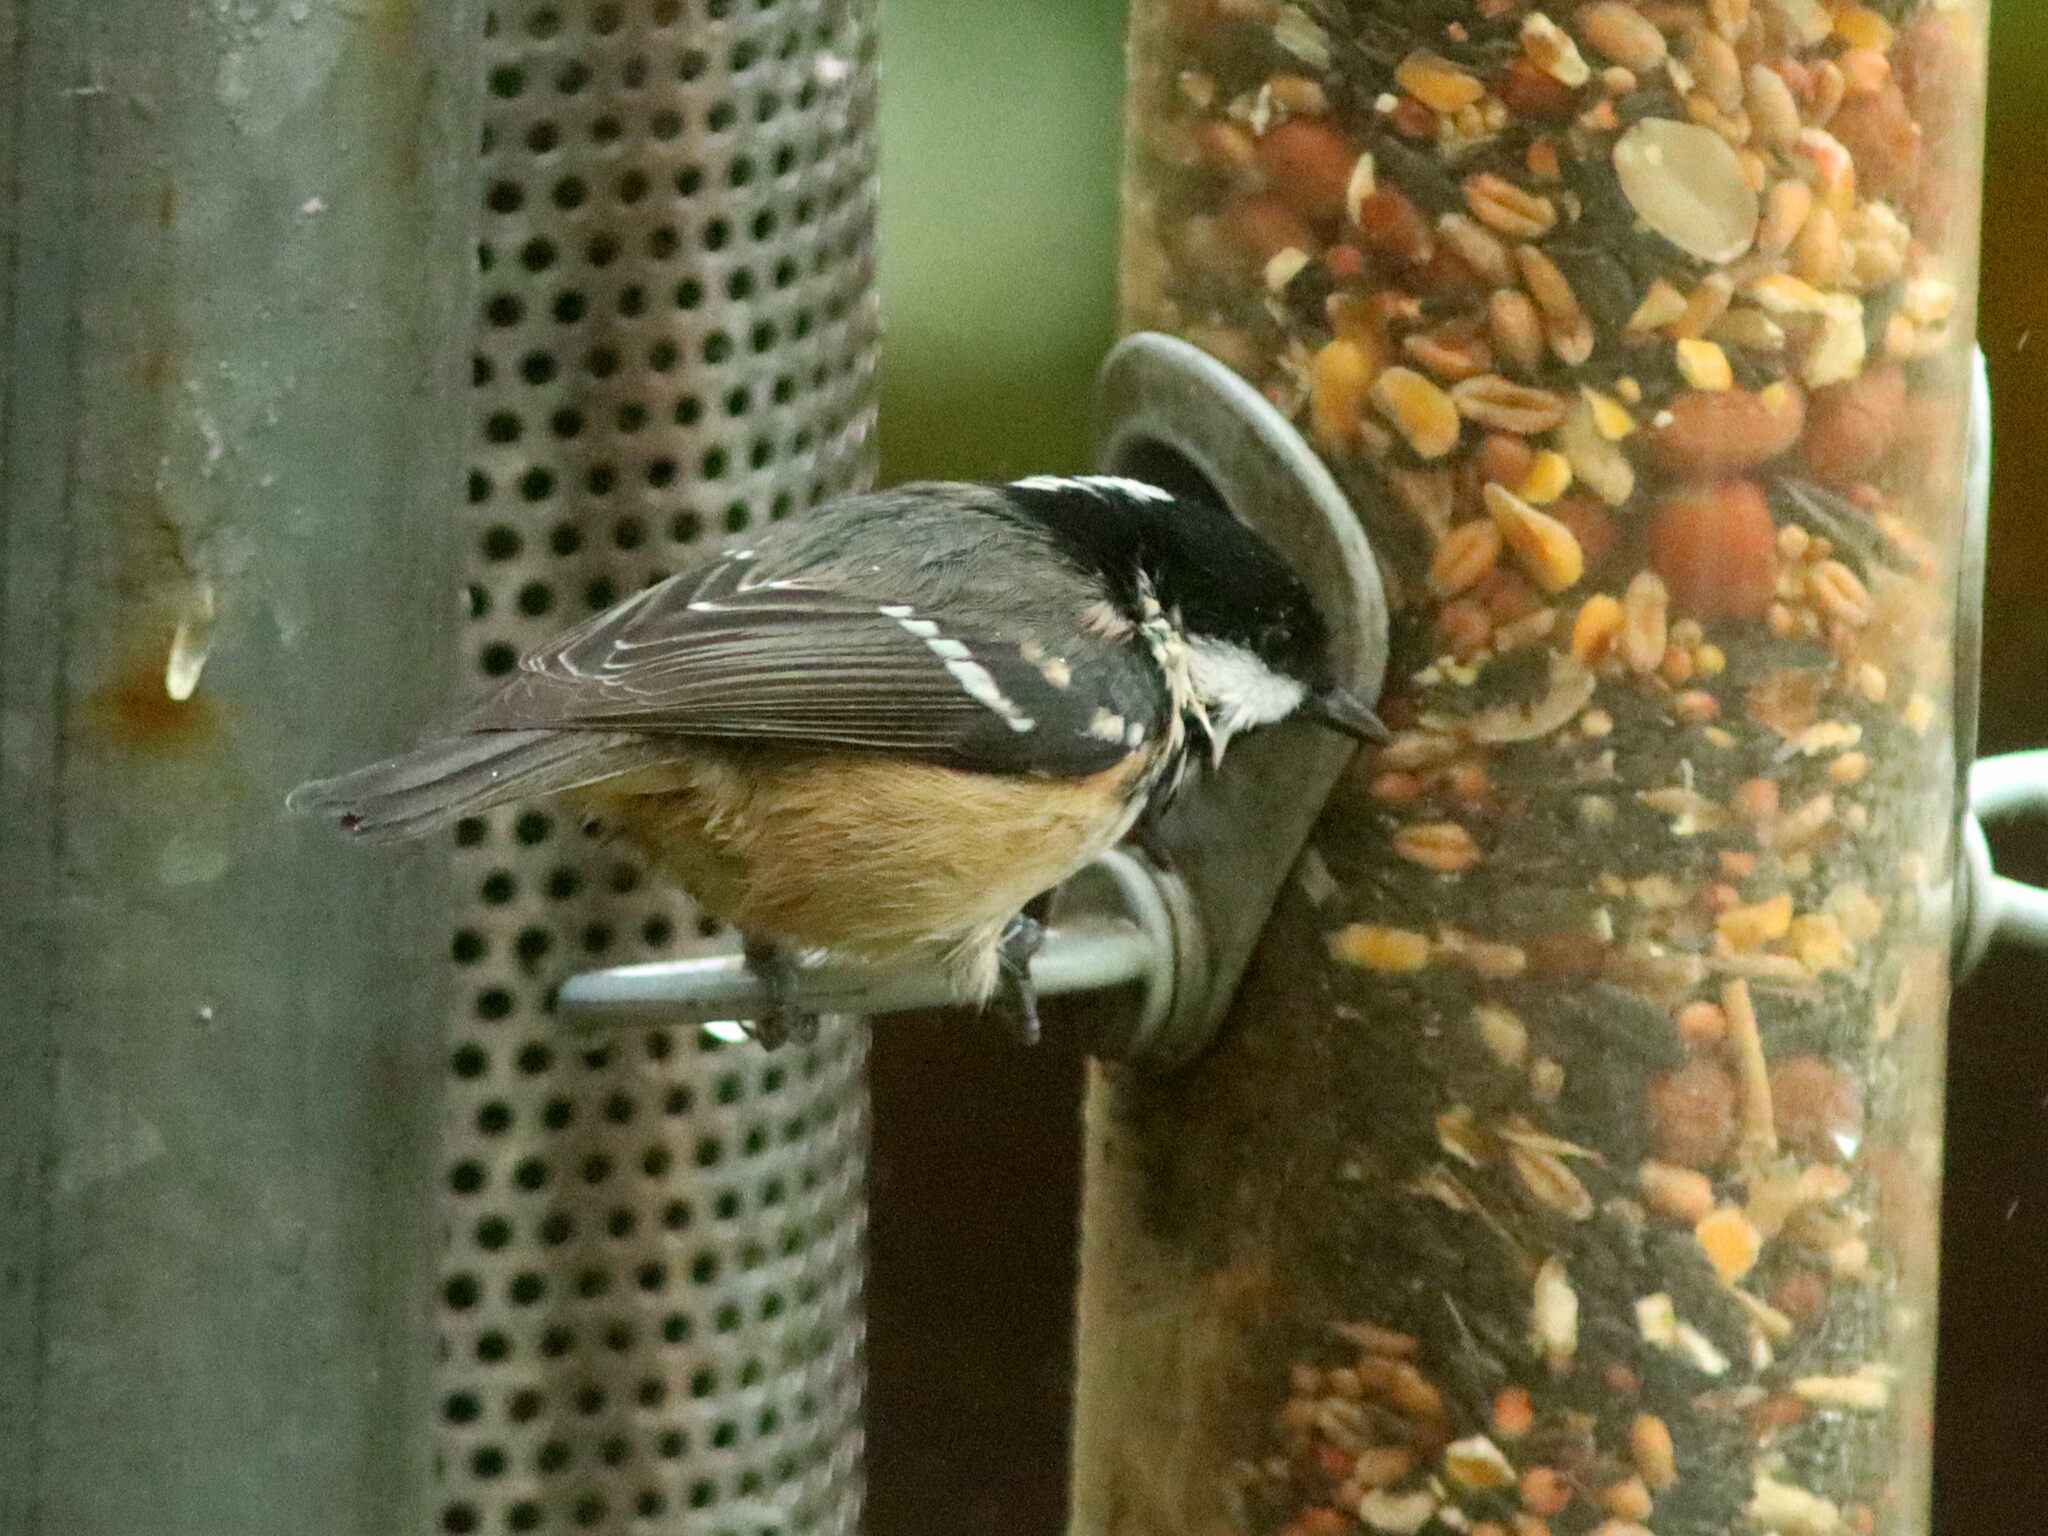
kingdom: Animalia
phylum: Chordata
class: Aves
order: Passeriformes
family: Paridae
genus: Periparus
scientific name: Periparus ater
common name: Coal tit
